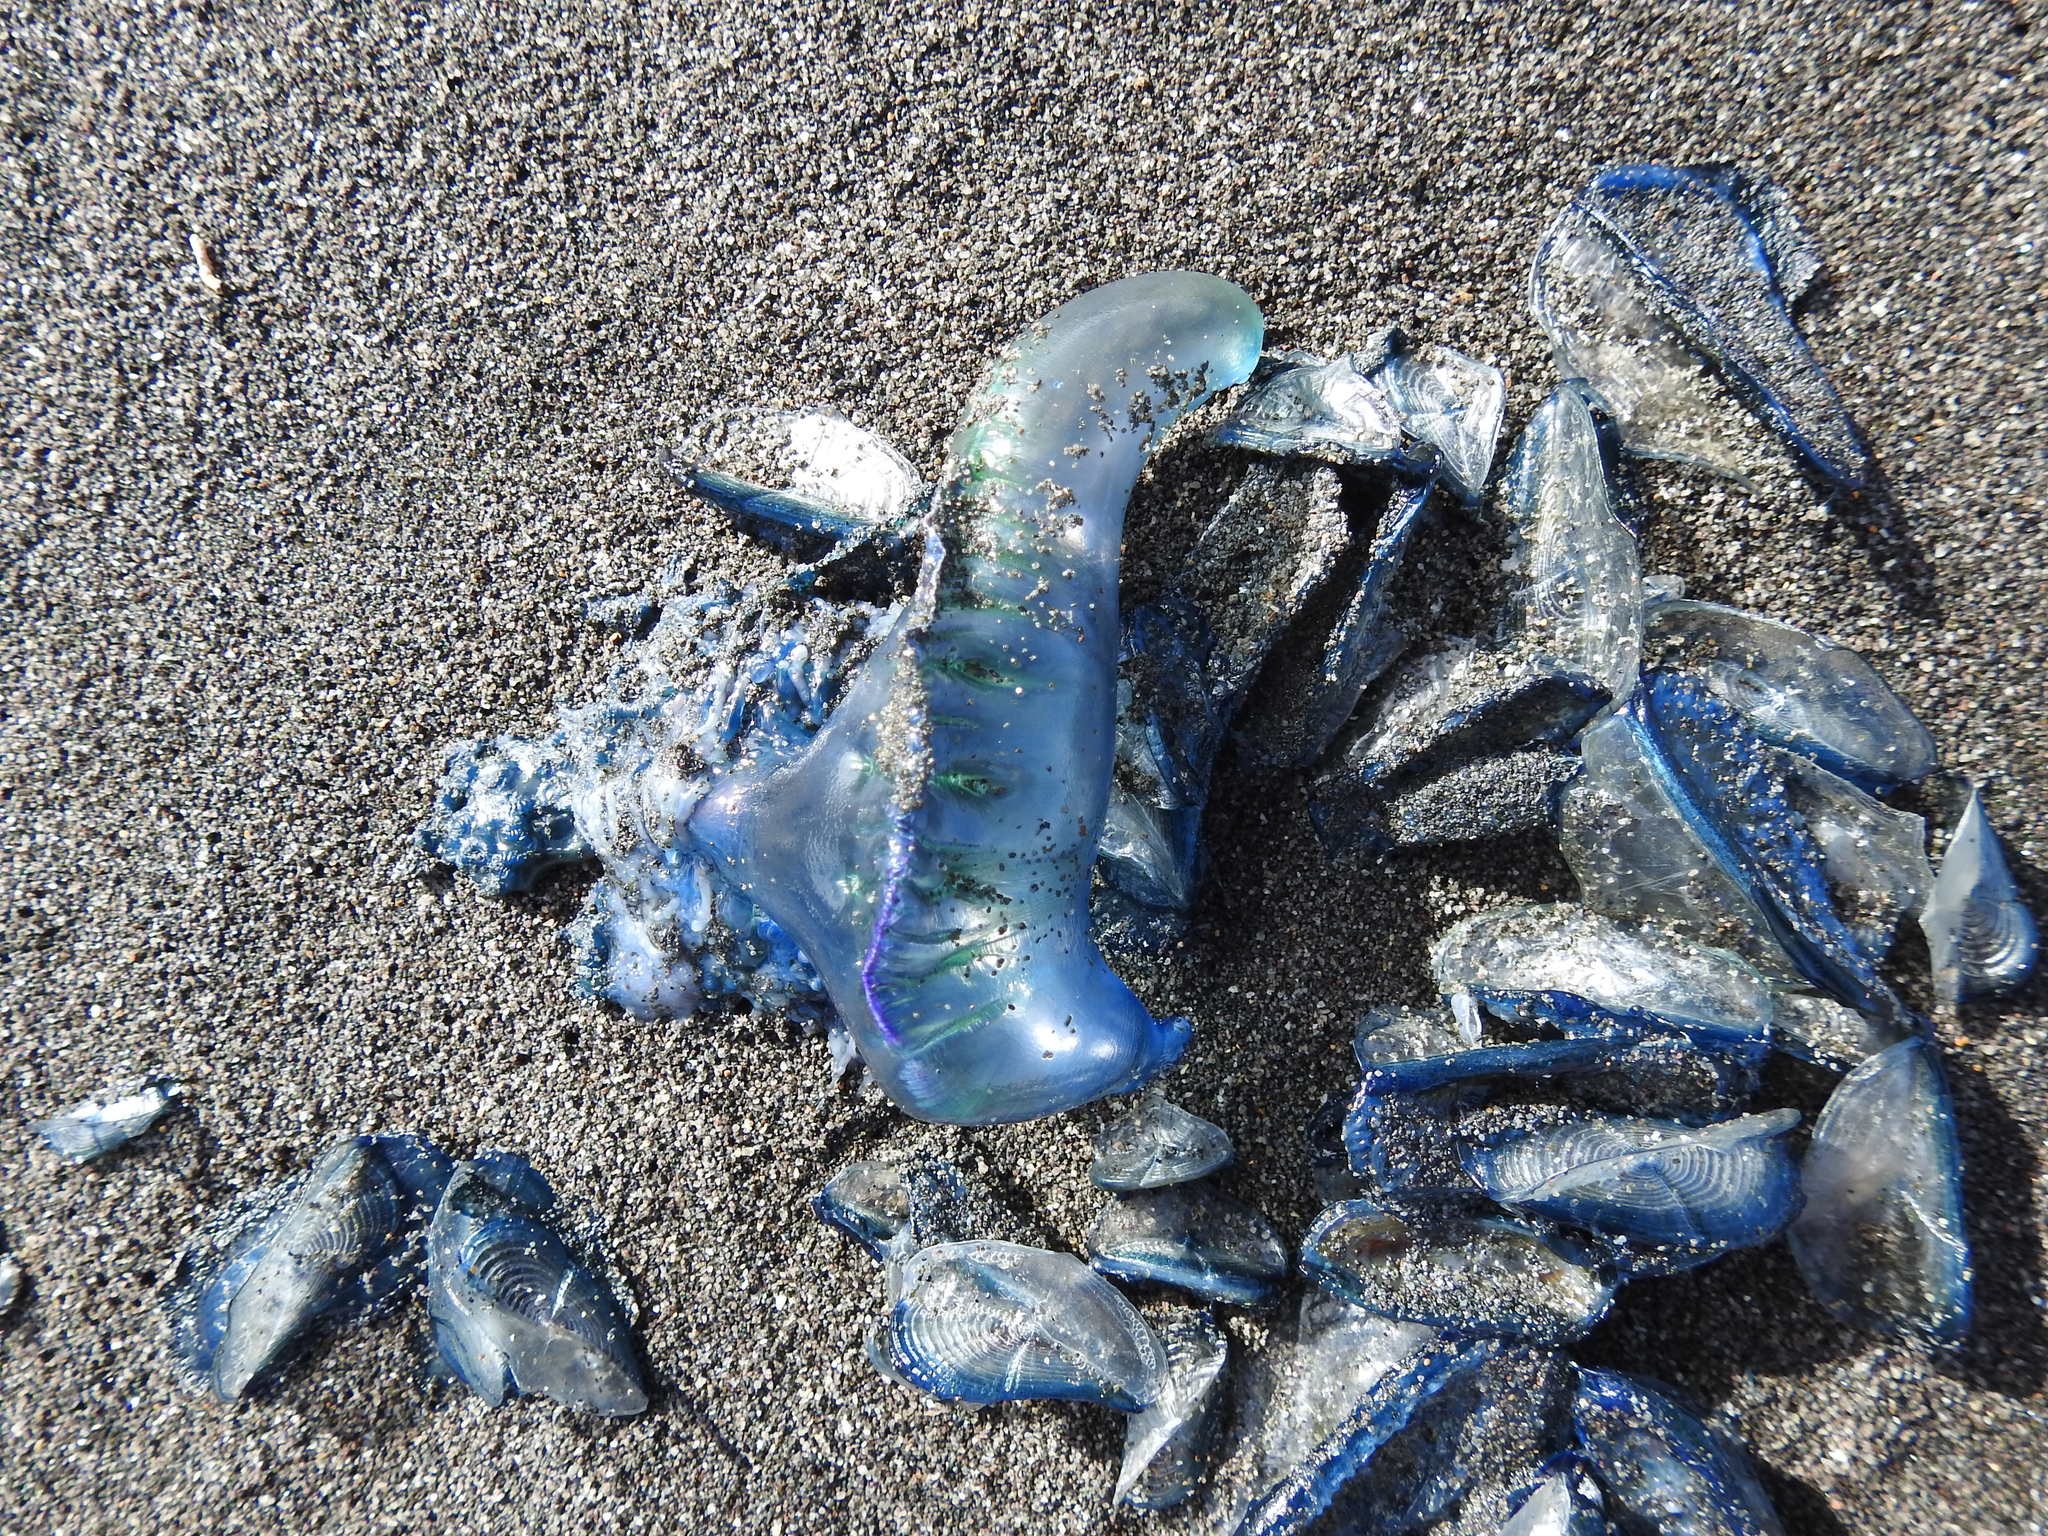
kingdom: Animalia
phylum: Cnidaria
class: Hydrozoa
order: Siphonophorae
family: Physaliidae
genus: Physalia
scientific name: Physalia physalis
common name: Portuguese man-of-war
